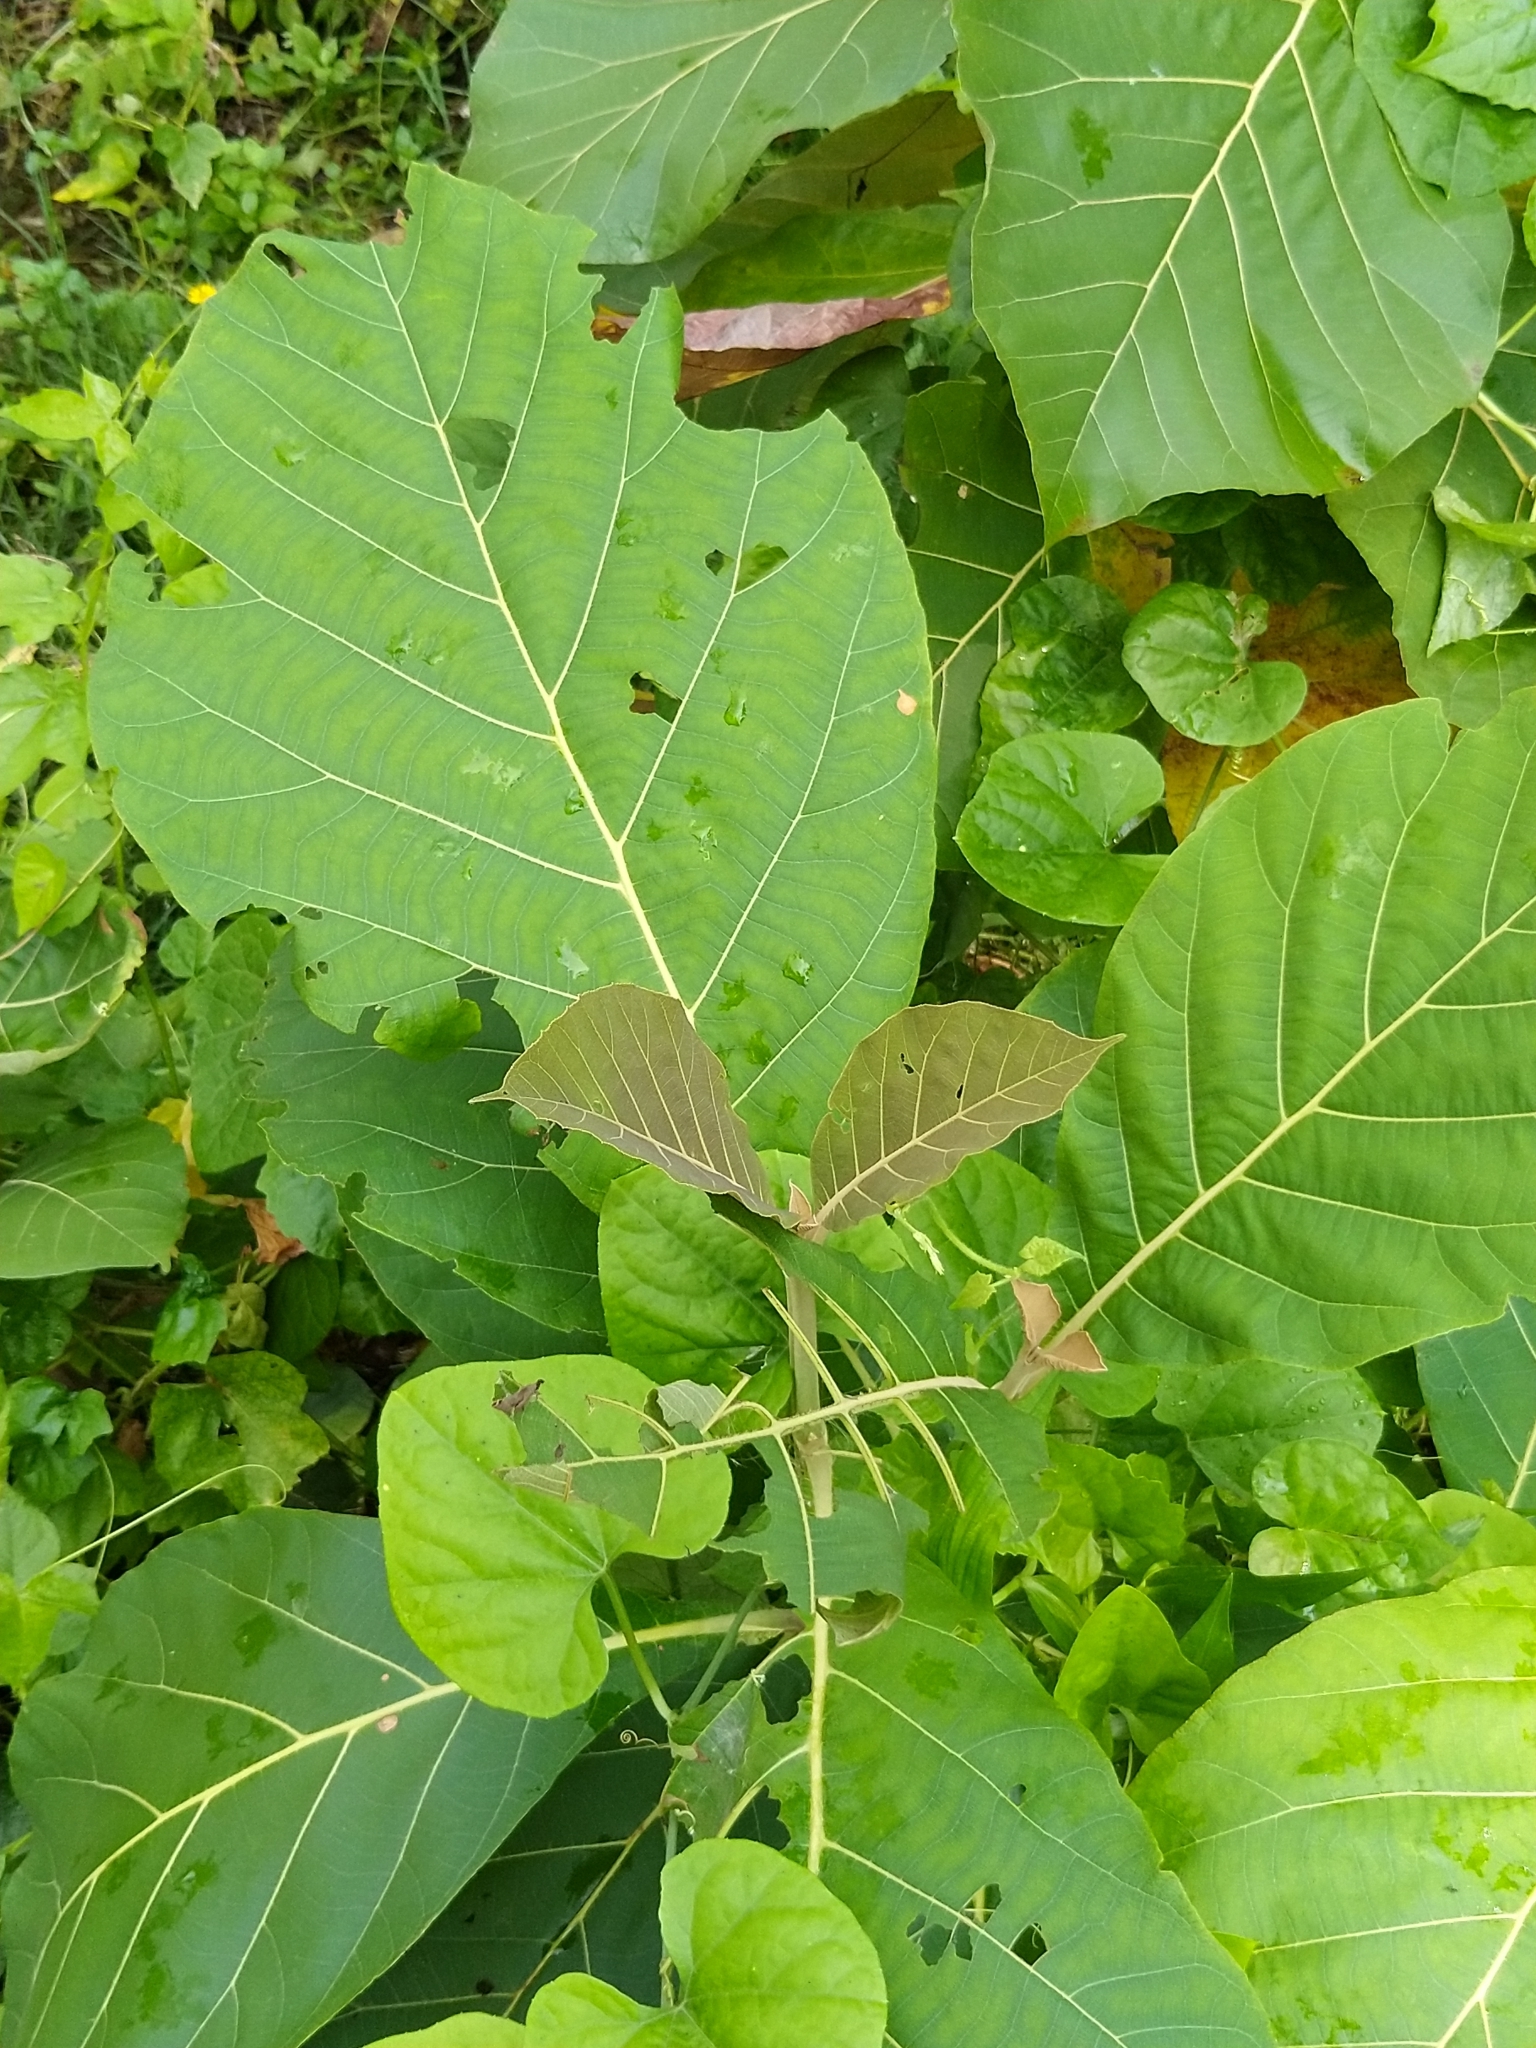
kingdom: Plantae
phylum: Tracheophyta
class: Magnoliopsida
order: Lamiales
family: Lamiaceae
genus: Tectona
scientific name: Tectona grandis
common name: Teak
